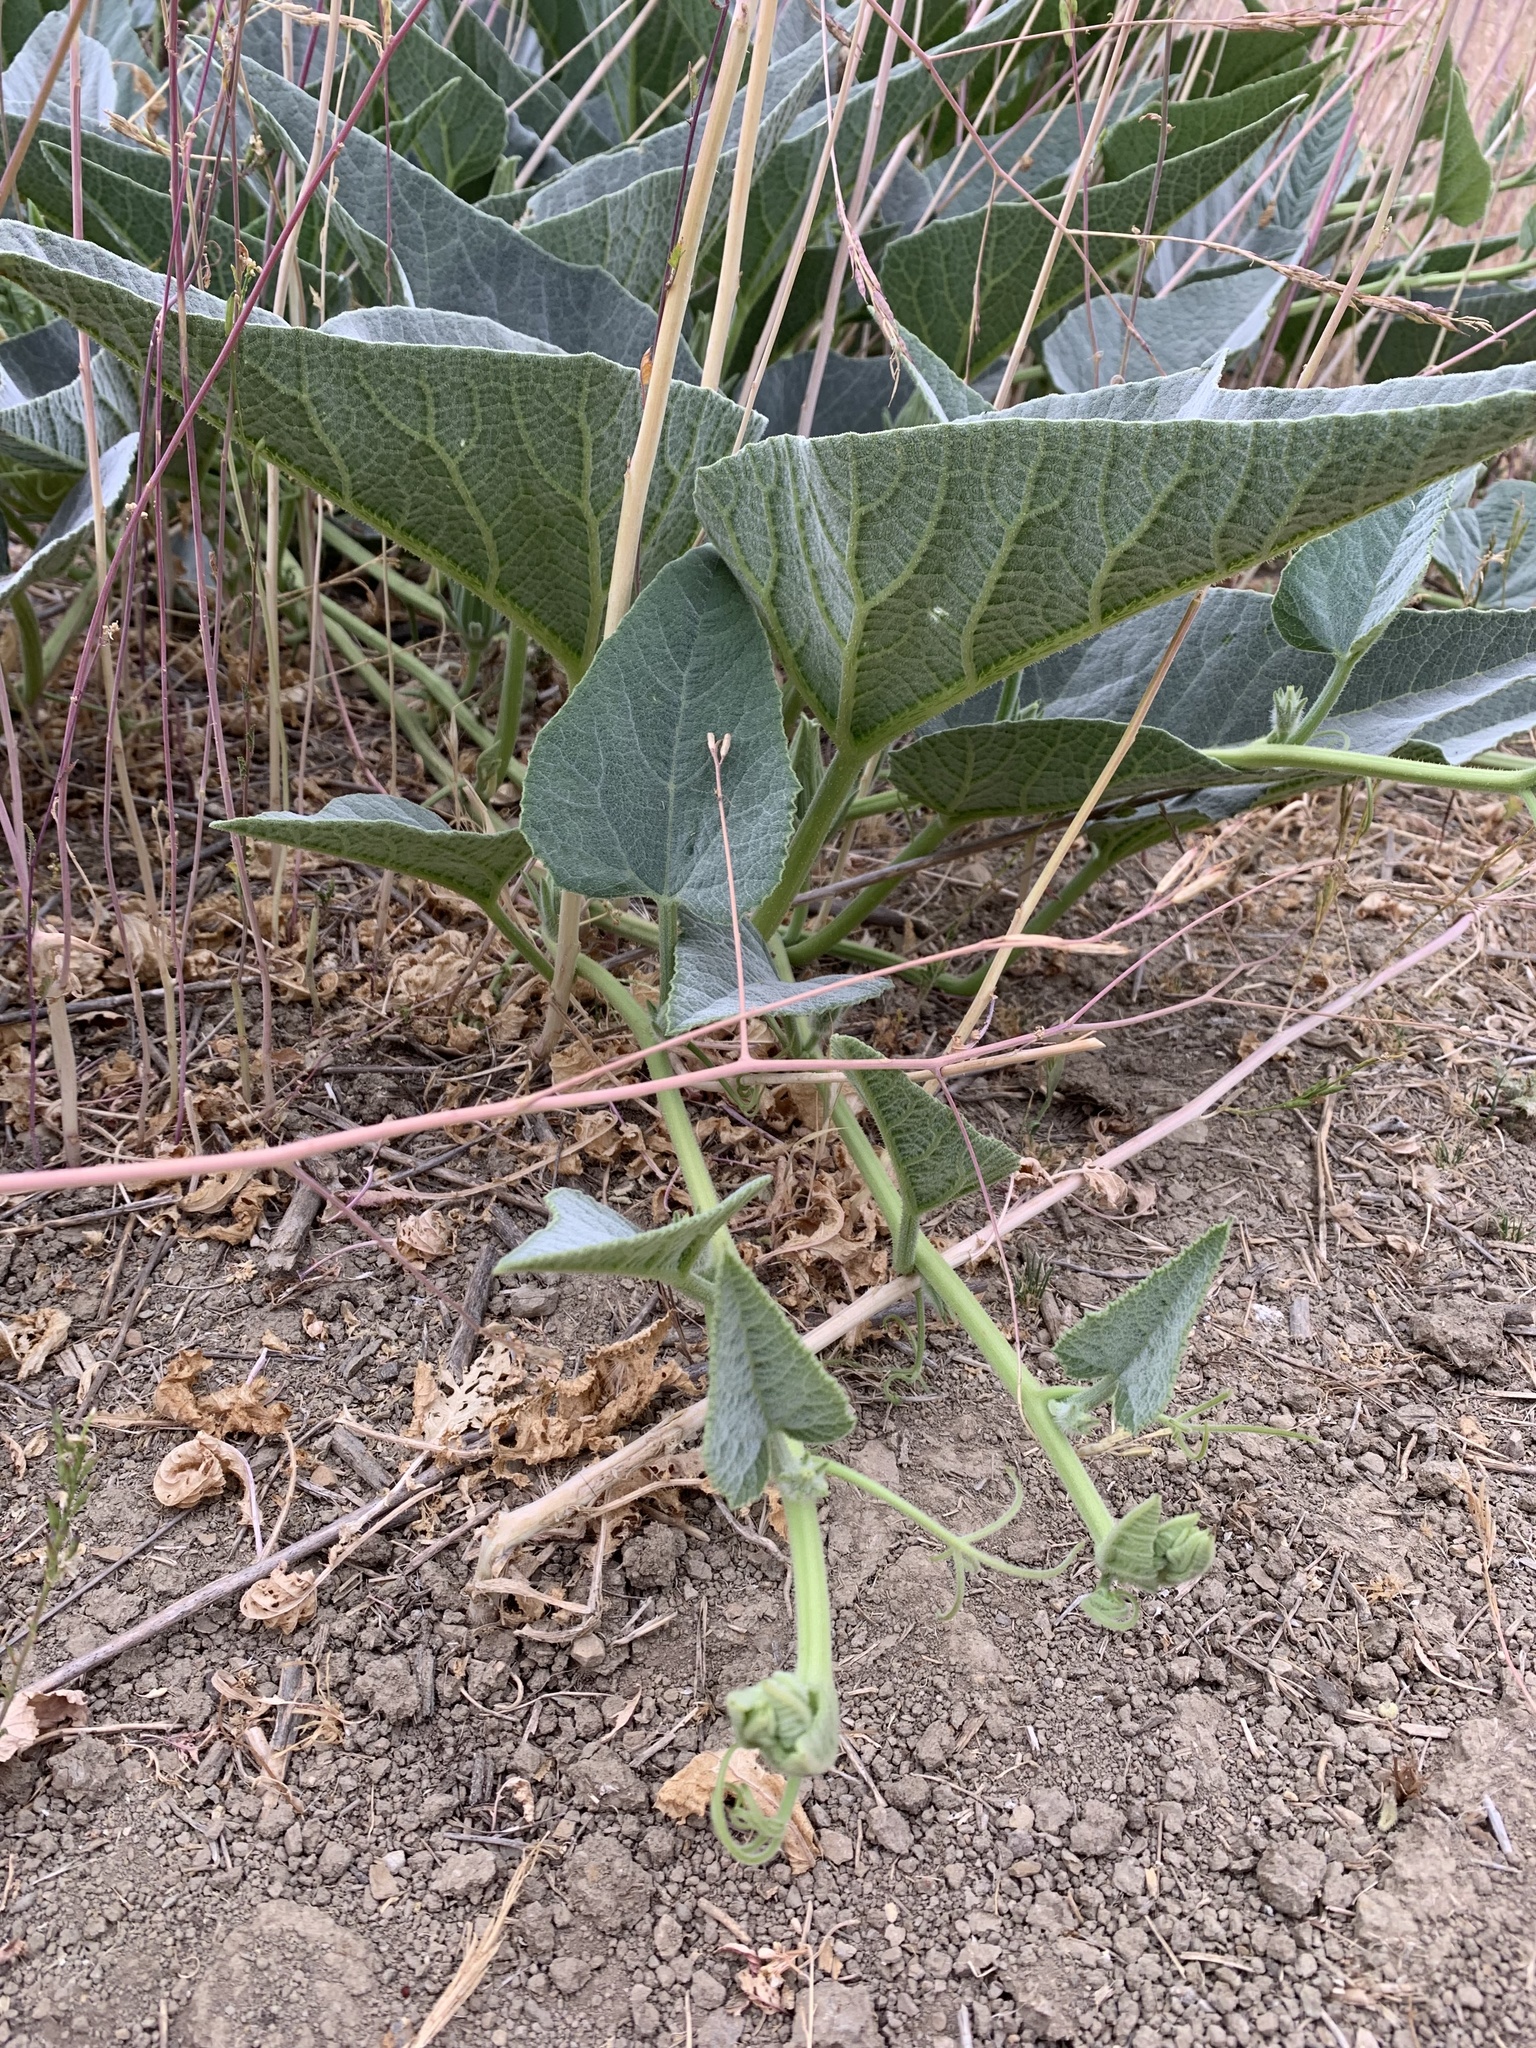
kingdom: Plantae
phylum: Tracheophyta
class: Magnoliopsida
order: Cucurbitales
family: Cucurbitaceae
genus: Cucurbita
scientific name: Cucurbita foetidissima
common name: Buffalo gourd
